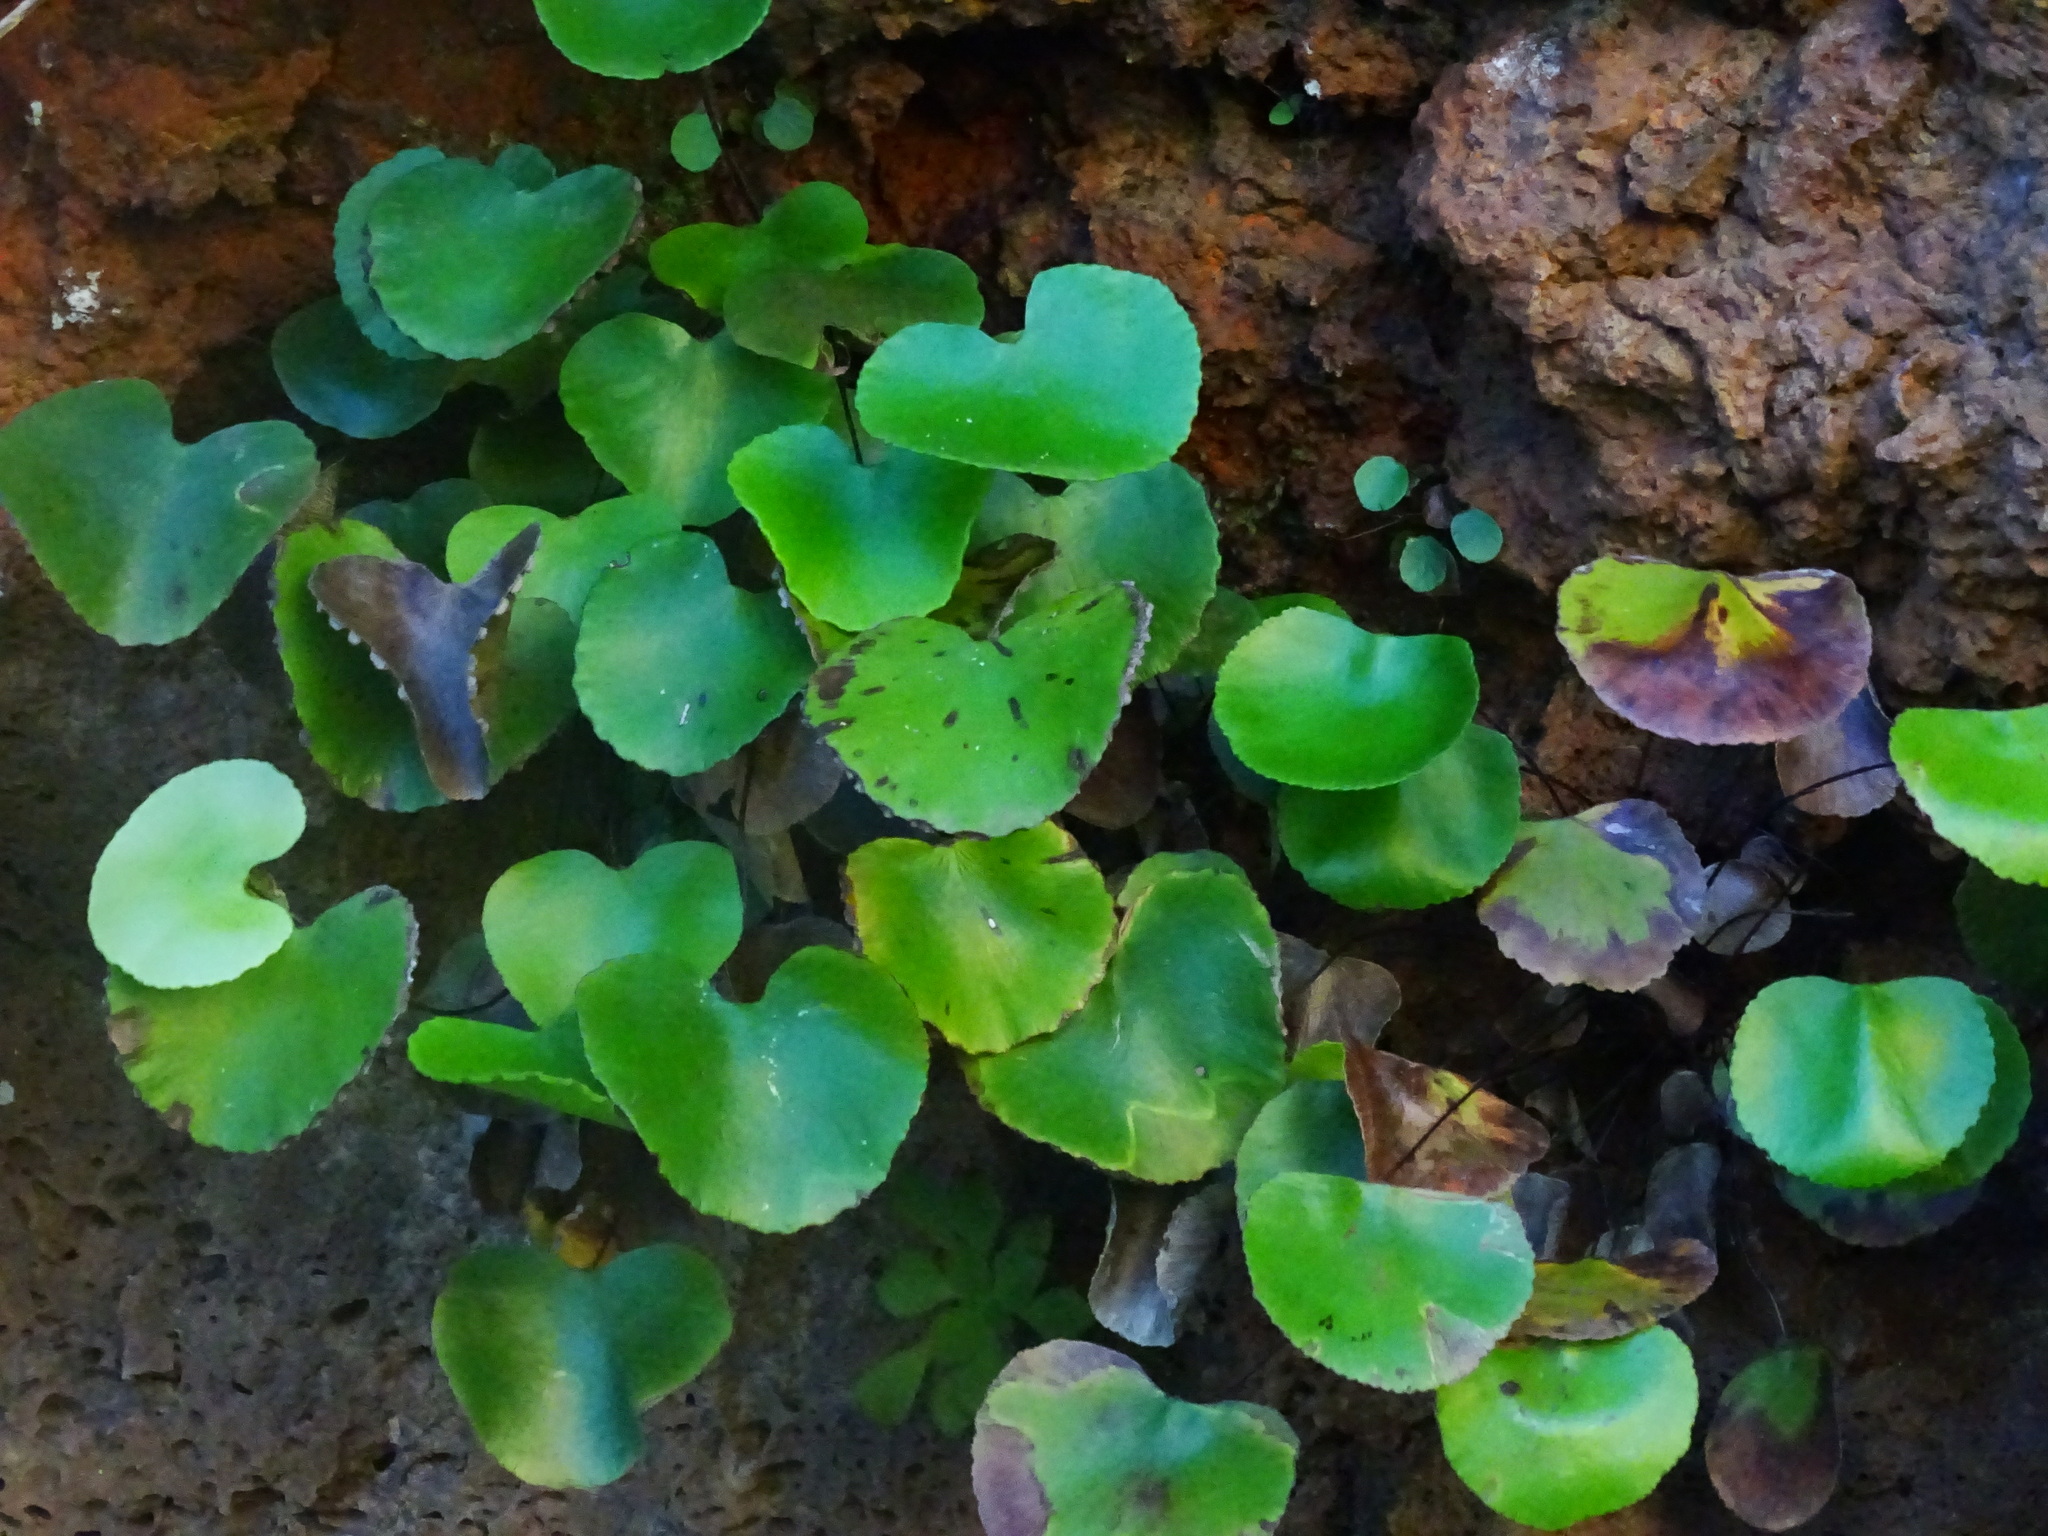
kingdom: Plantae
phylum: Tracheophyta
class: Polypodiopsida
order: Polypodiales
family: Pteridaceae
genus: Adiantum
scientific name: Adiantum reniforme
